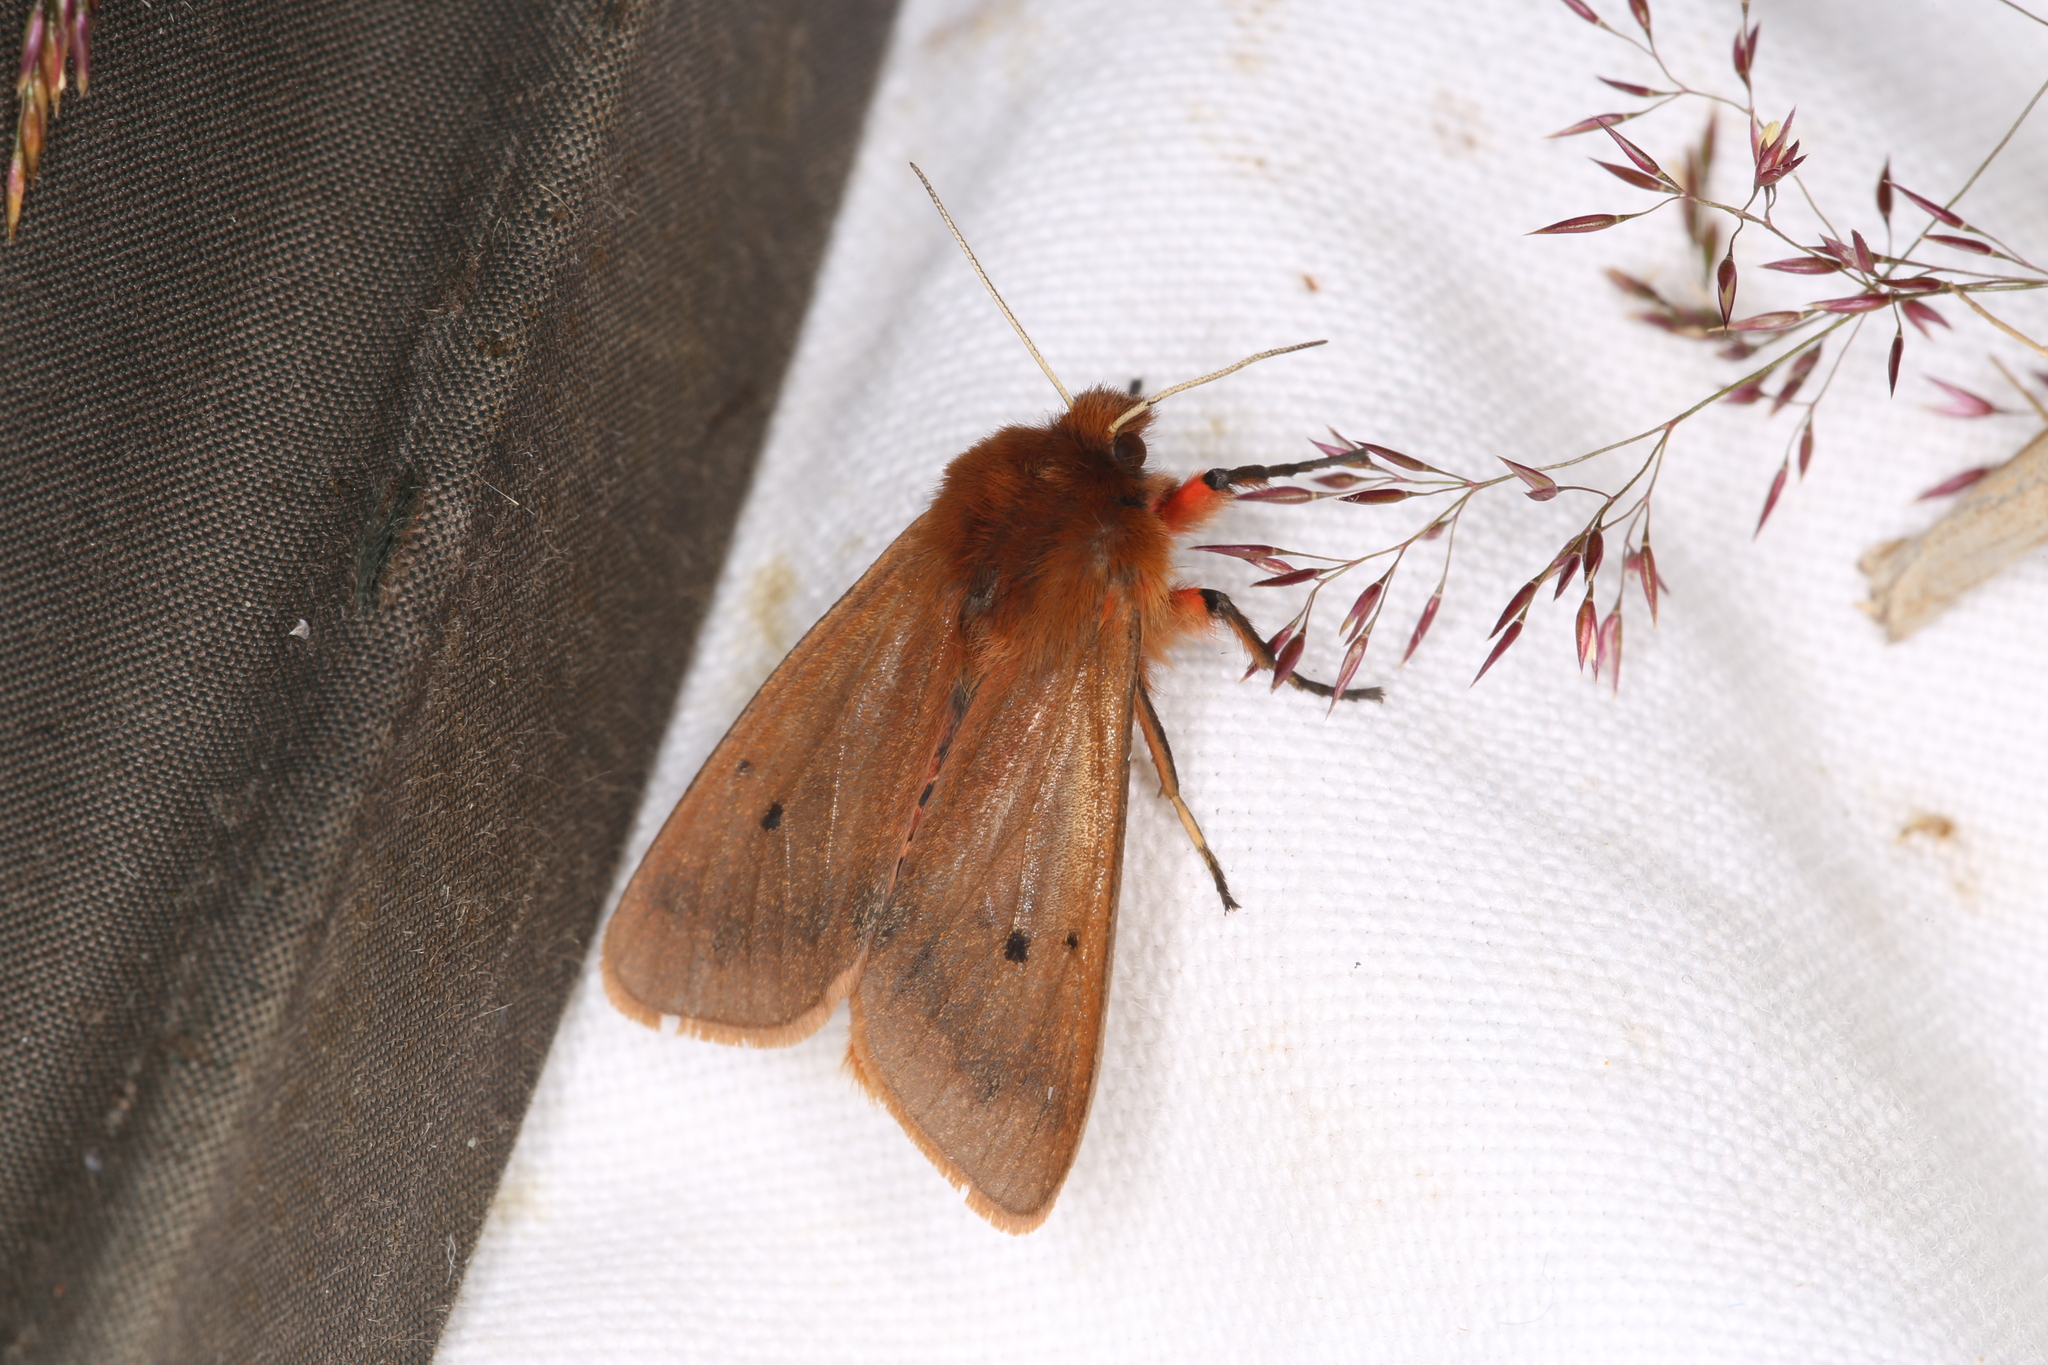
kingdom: Animalia
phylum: Arthropoda
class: Insecta
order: Lepidoptera
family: Erebidae
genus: Phragmatobia
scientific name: Phragmatobia fuliginosa
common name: Ruby tiger
